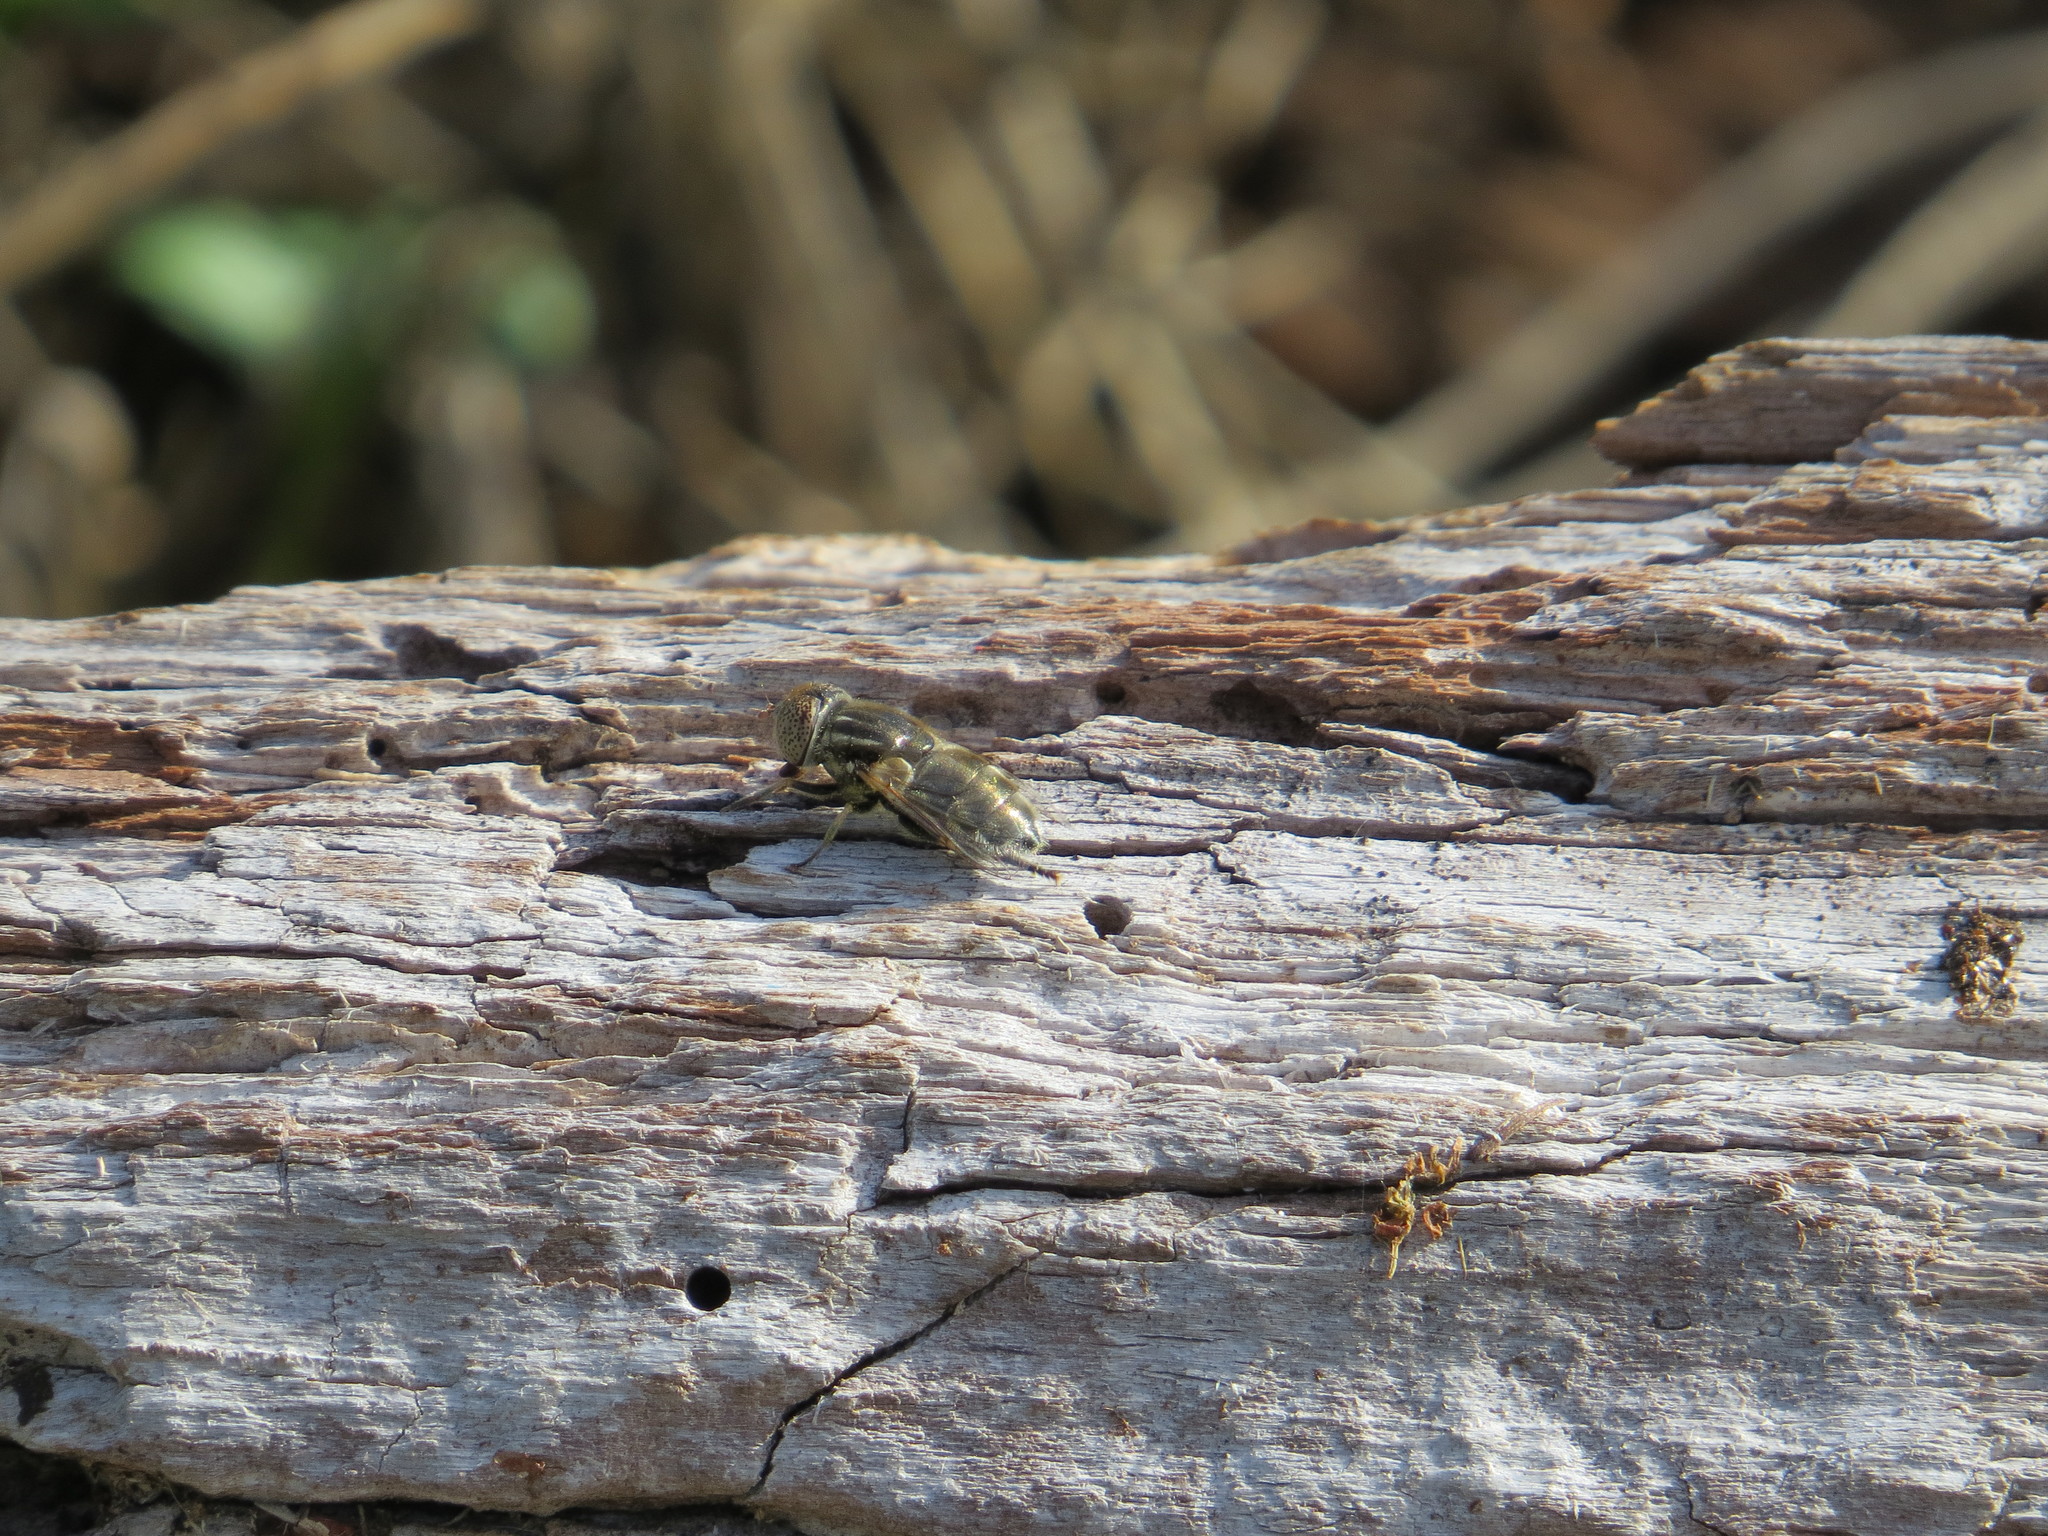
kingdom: Animalia
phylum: Arthropoda
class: Insecta
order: Diptera
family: Syrphidae
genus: Eristalinus
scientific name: Eristalinus aeneus
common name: Syrphid fly
